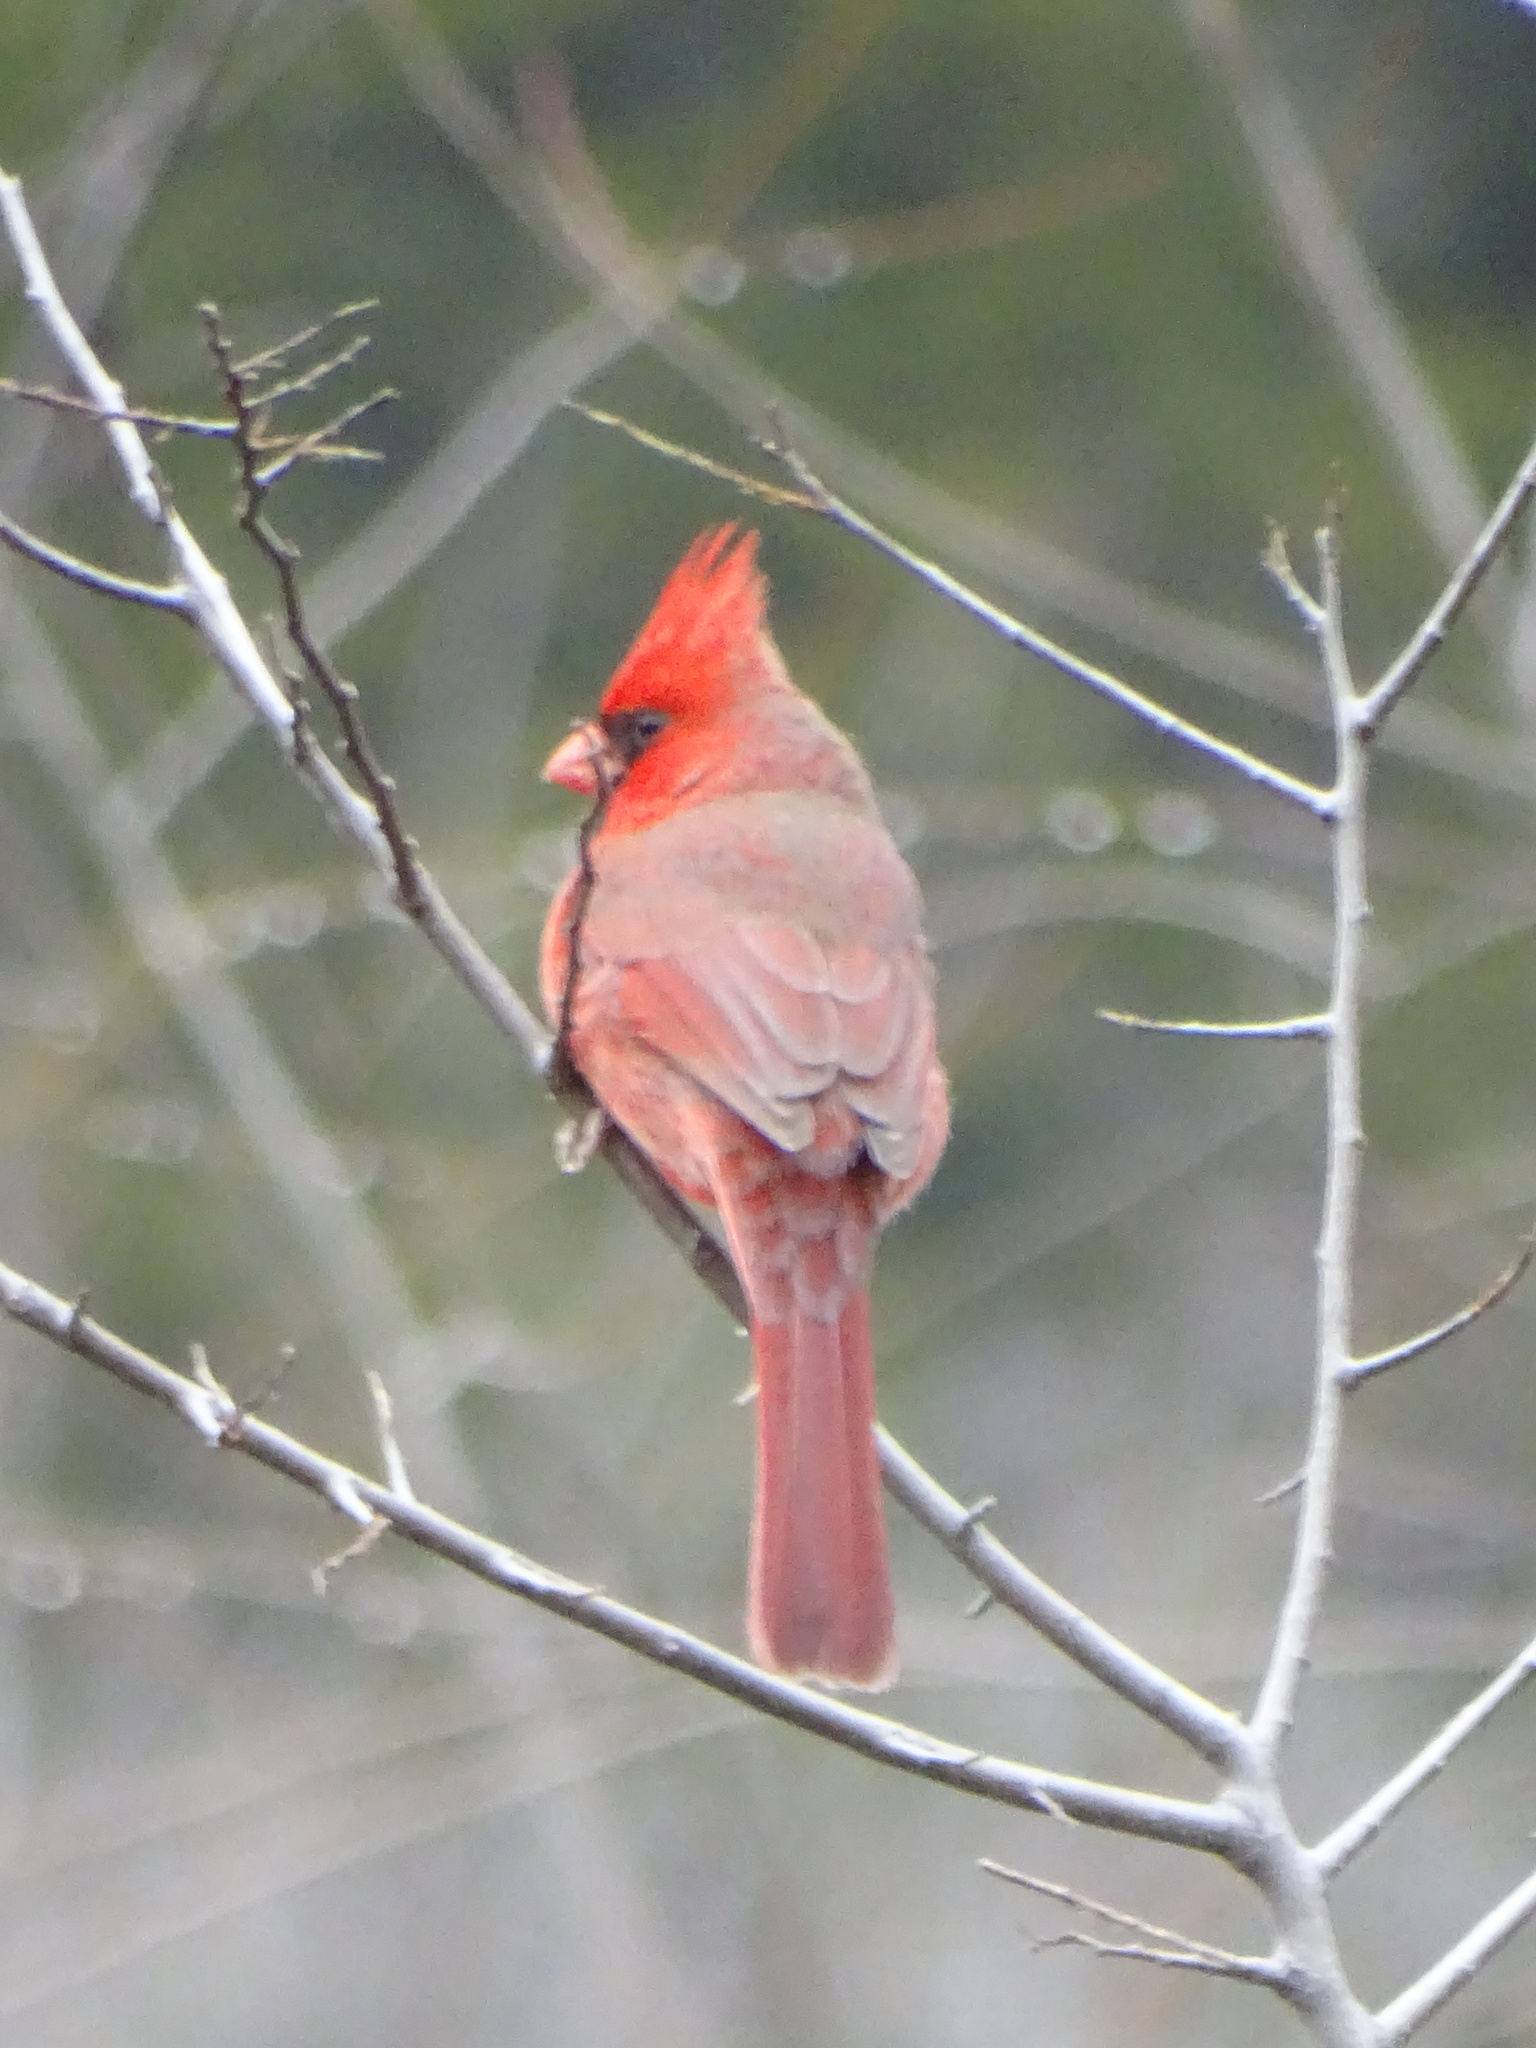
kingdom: Animalia
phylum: Chordata
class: Aves
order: Passeriformes
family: Cardinalidae
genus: Cardinalis
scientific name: Cardinalis cardinalis
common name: Northern cardinal
